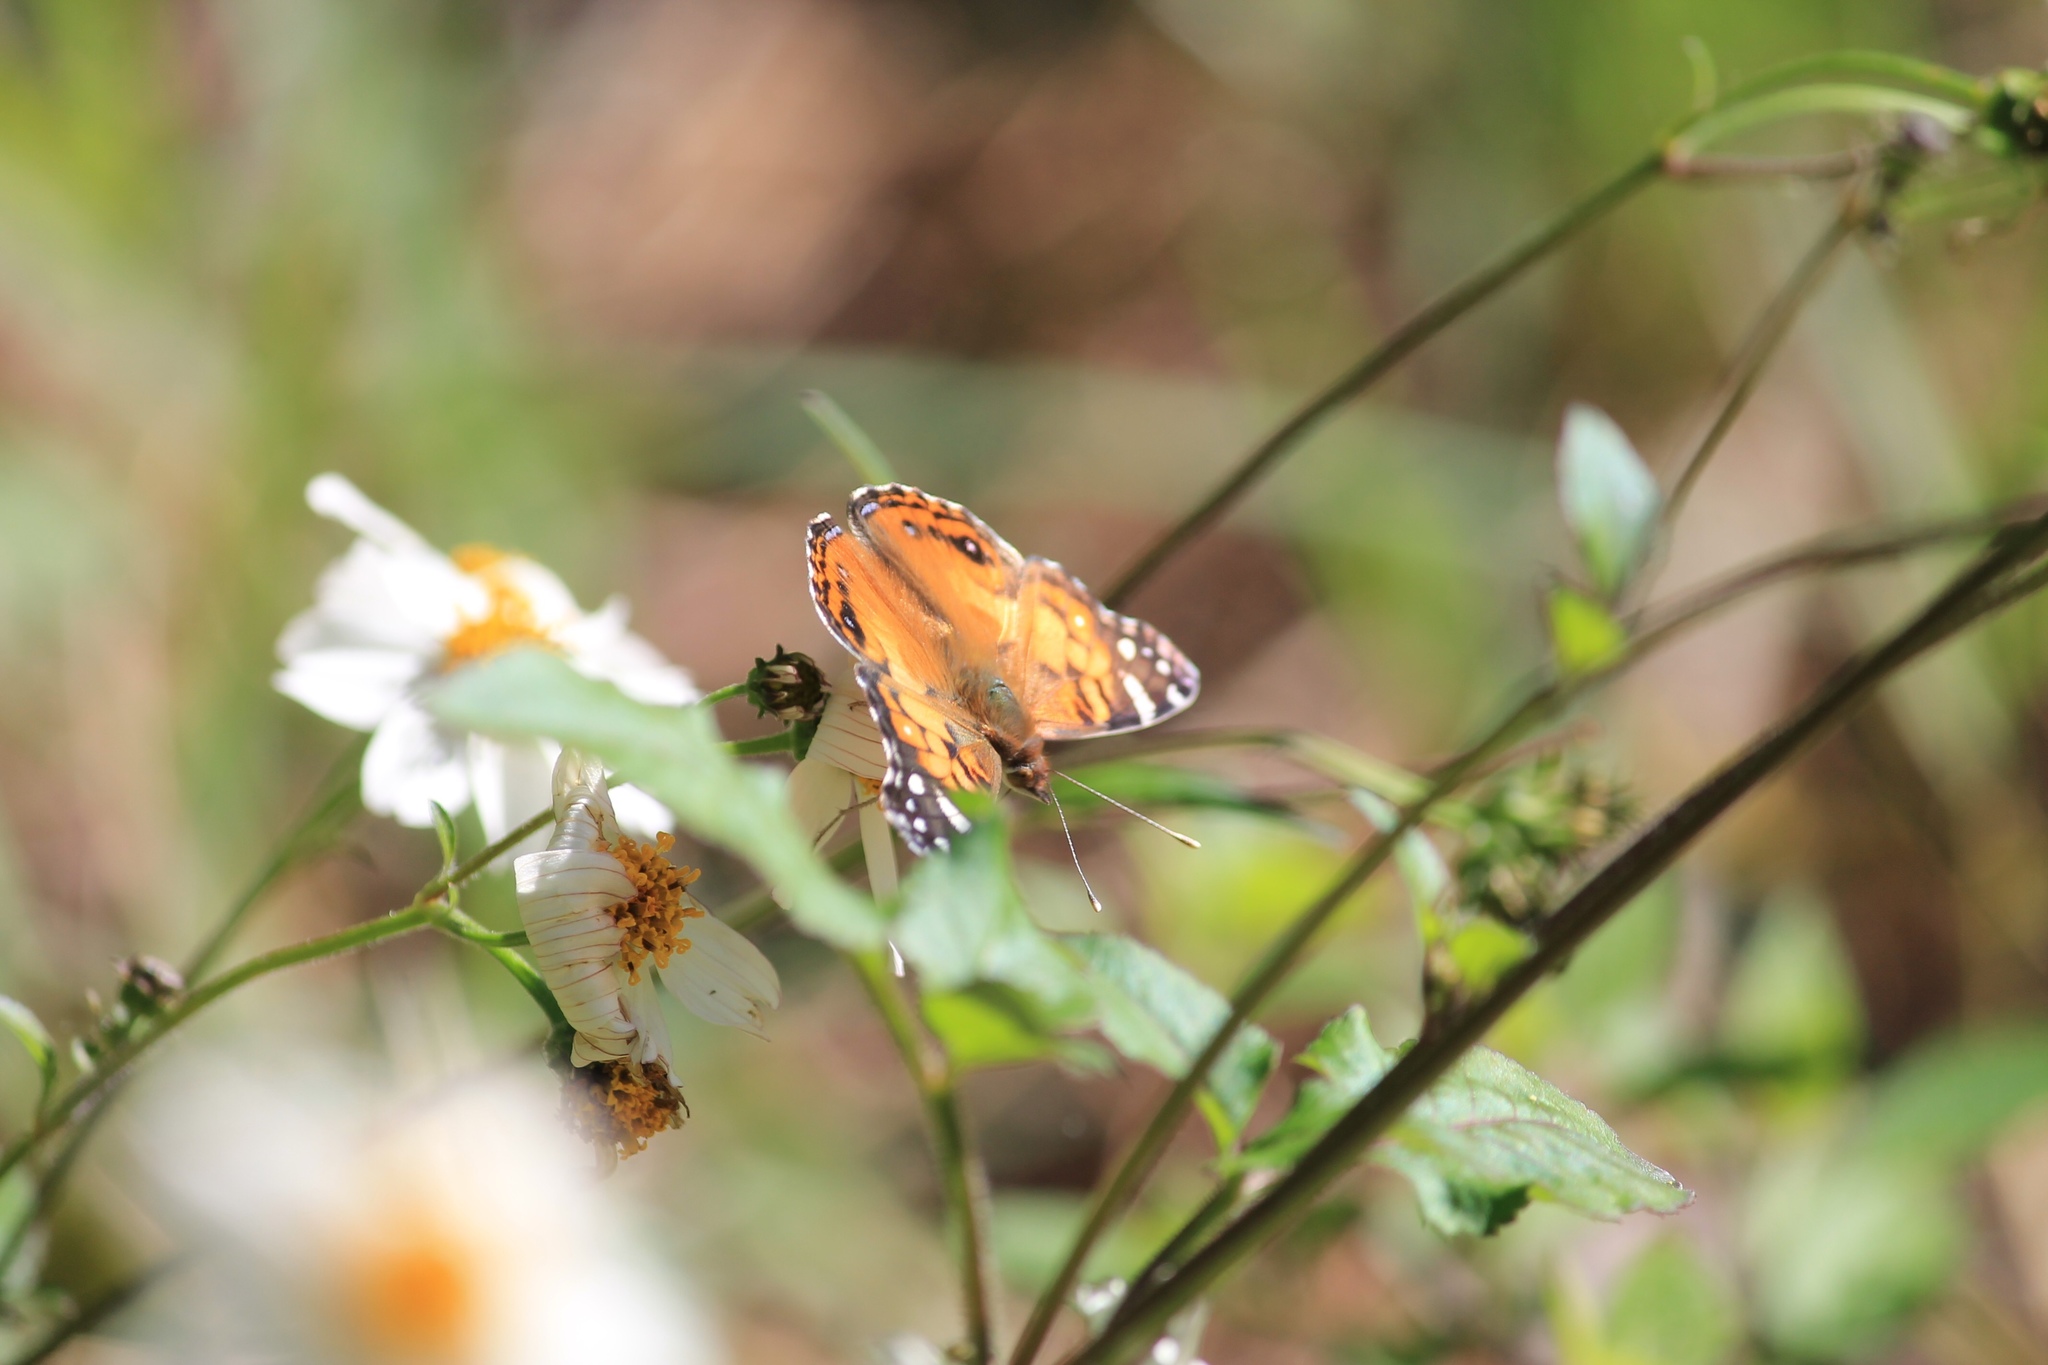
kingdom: Animalia
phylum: Arthropoda
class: Insecta
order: Lepidoptera
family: Nymphalidae
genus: Vanessa
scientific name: Vanessa virginiensis
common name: American lady
